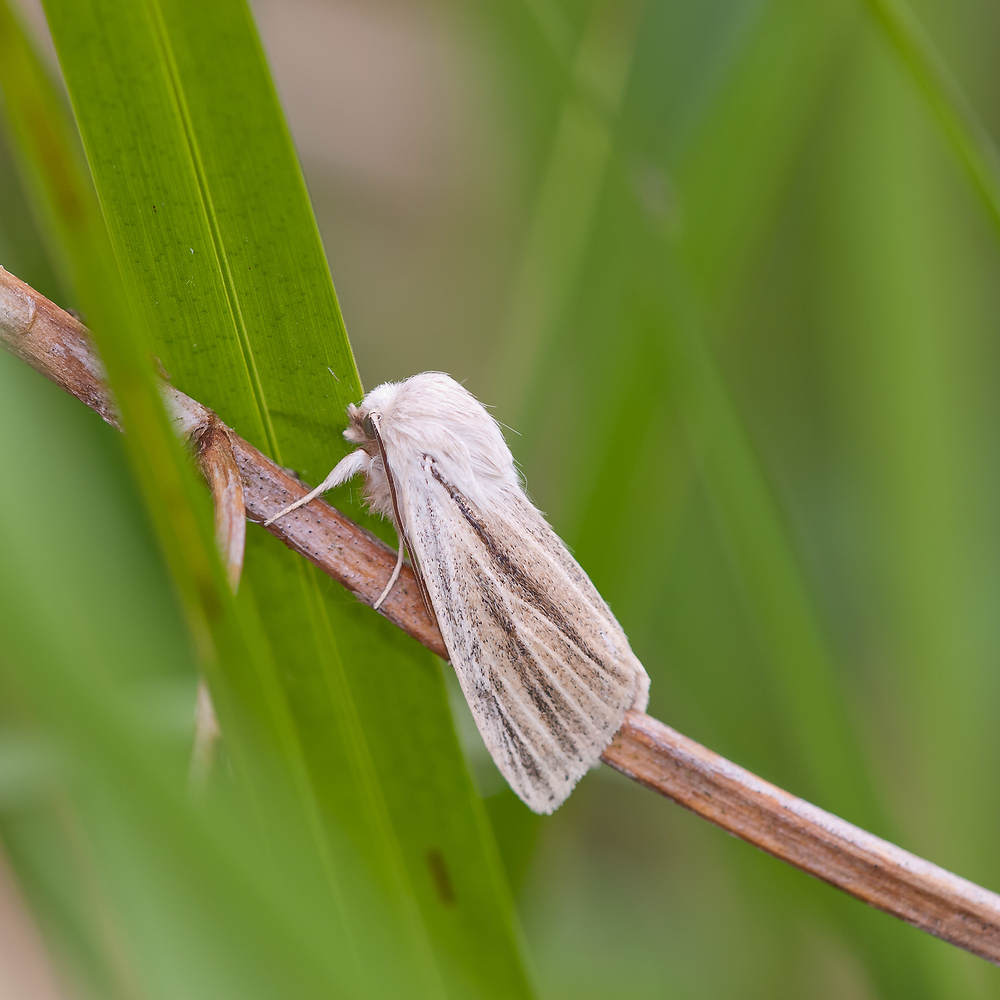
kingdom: Animalia
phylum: Arthropoda
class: Insecta
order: Lepidoptera
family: Noctuidae
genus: Simyra
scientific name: Simyra albovenosa
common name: Reed dagger
